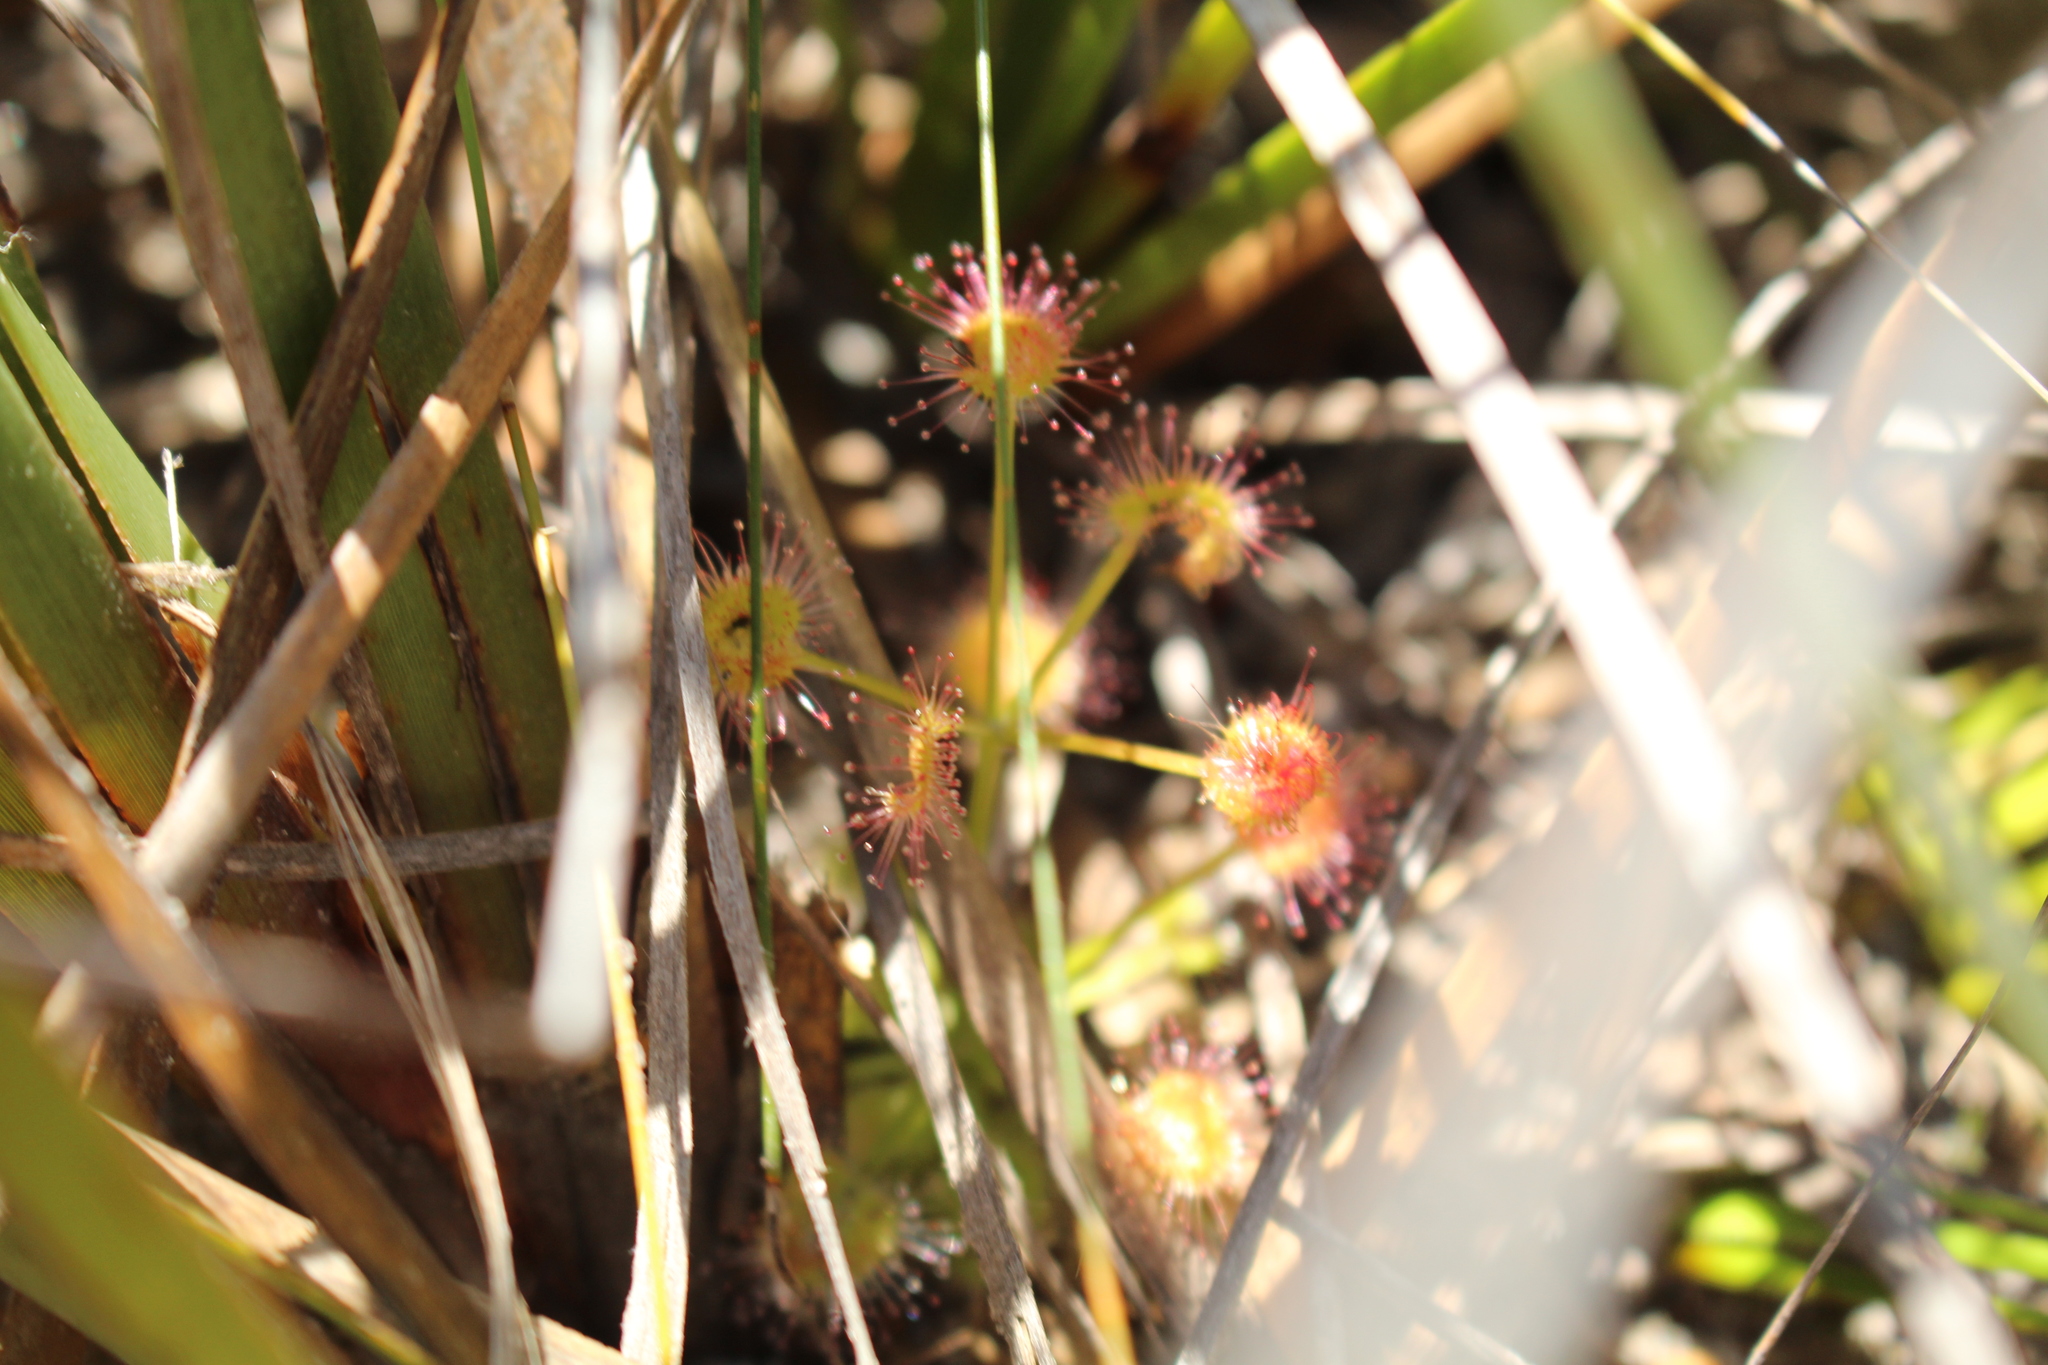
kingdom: Plantae
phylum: Tracheophyta
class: Magnoliopsida
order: Caryophyllales
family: Droseraceae
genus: Drosera
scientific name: Drosera stolonifera
